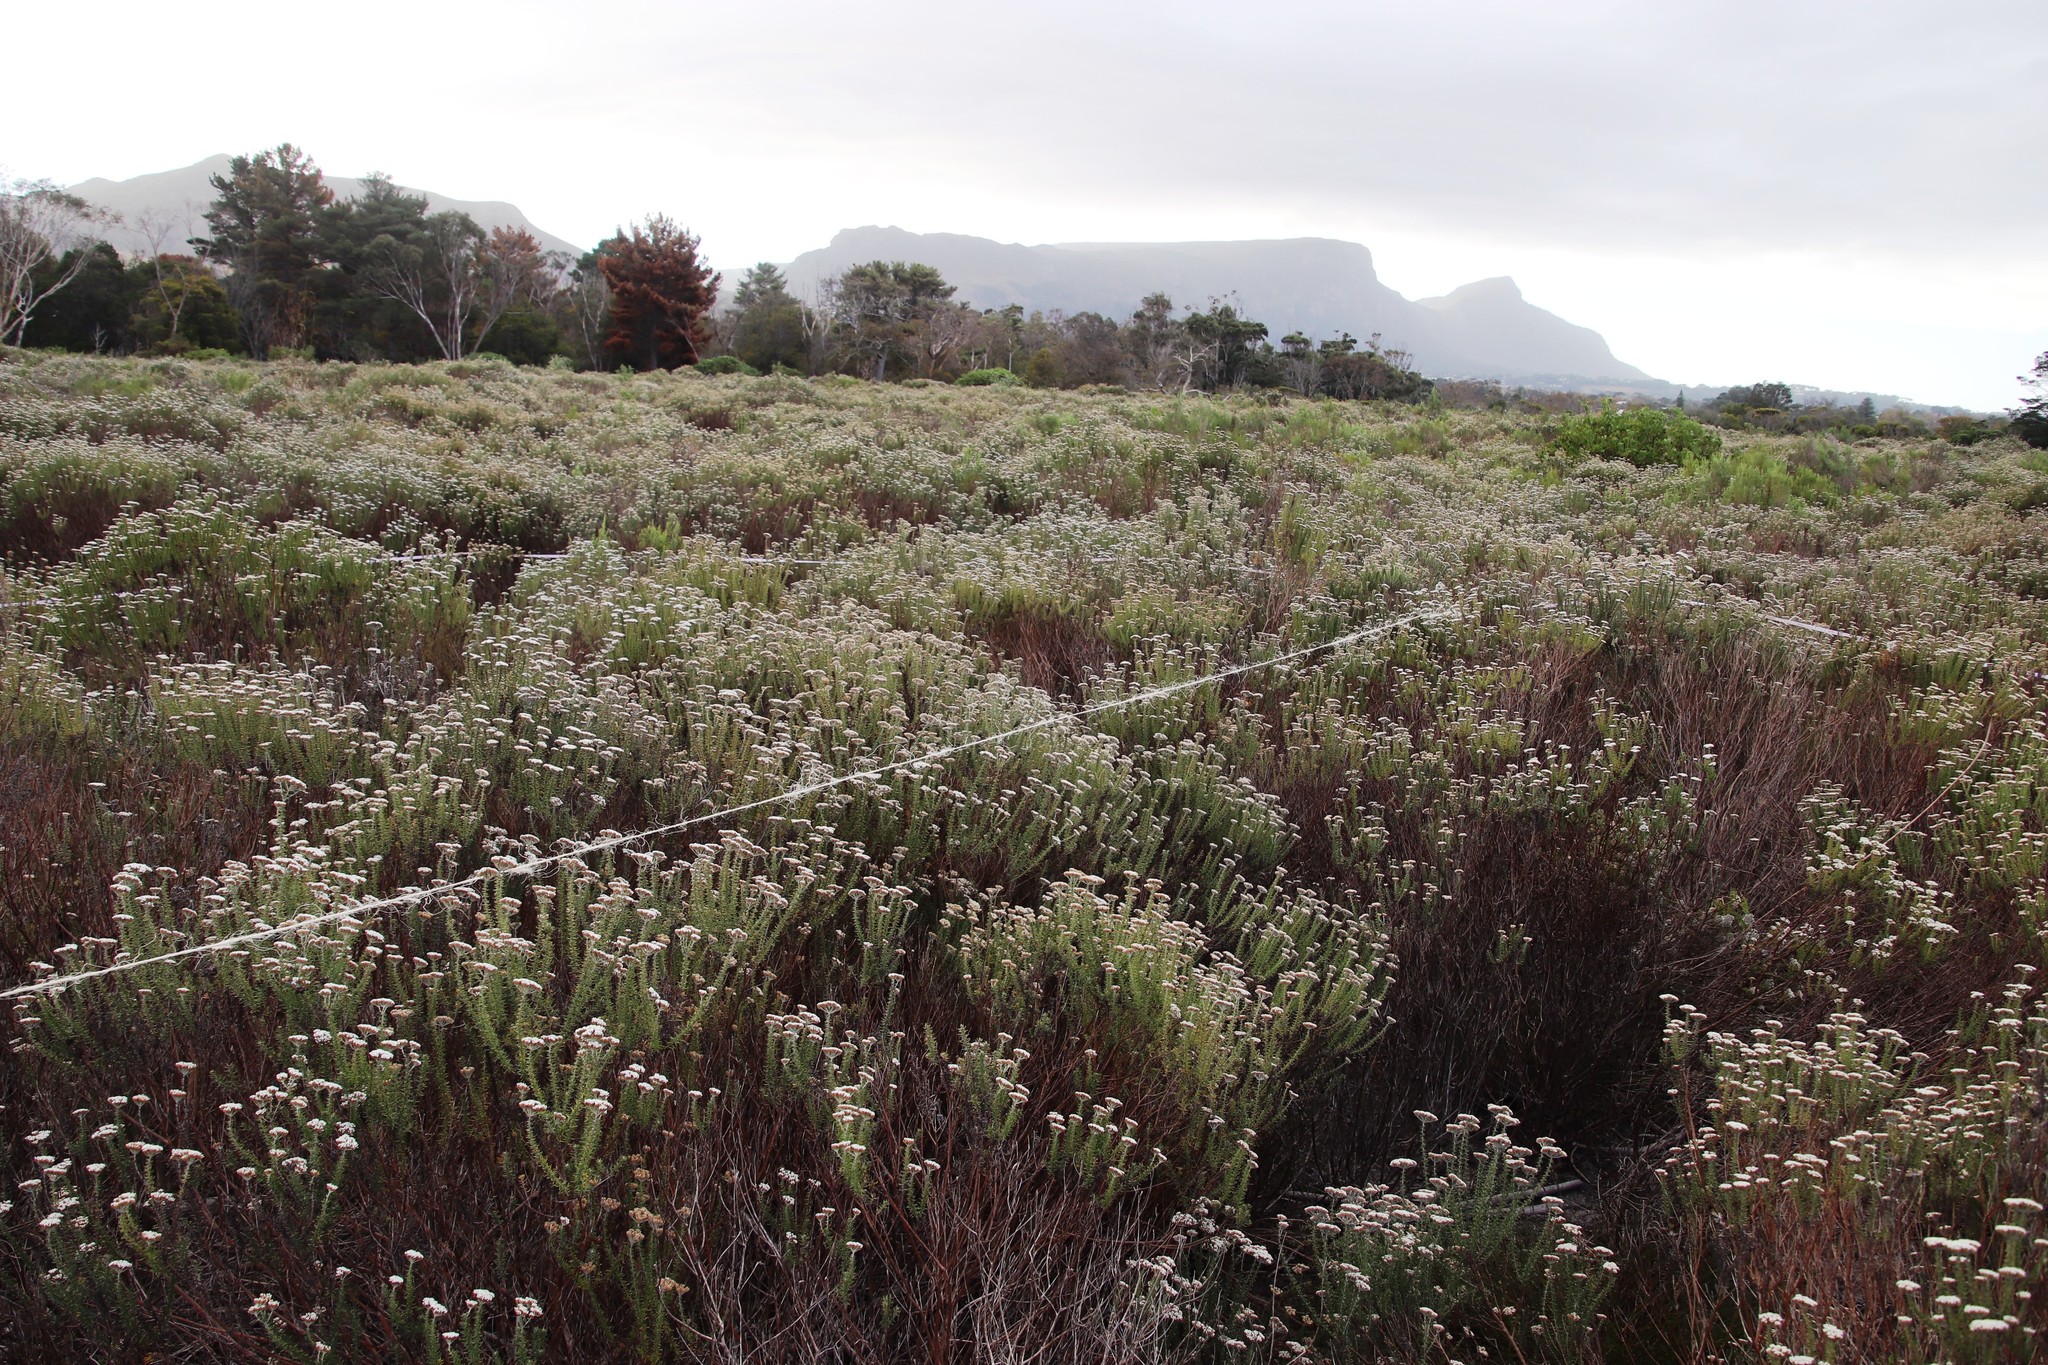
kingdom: Plantae
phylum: Tracheophyta
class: Magnoliopsida
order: Asterales
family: Asteraceae
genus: Metalasia
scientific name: Metalasia densa
